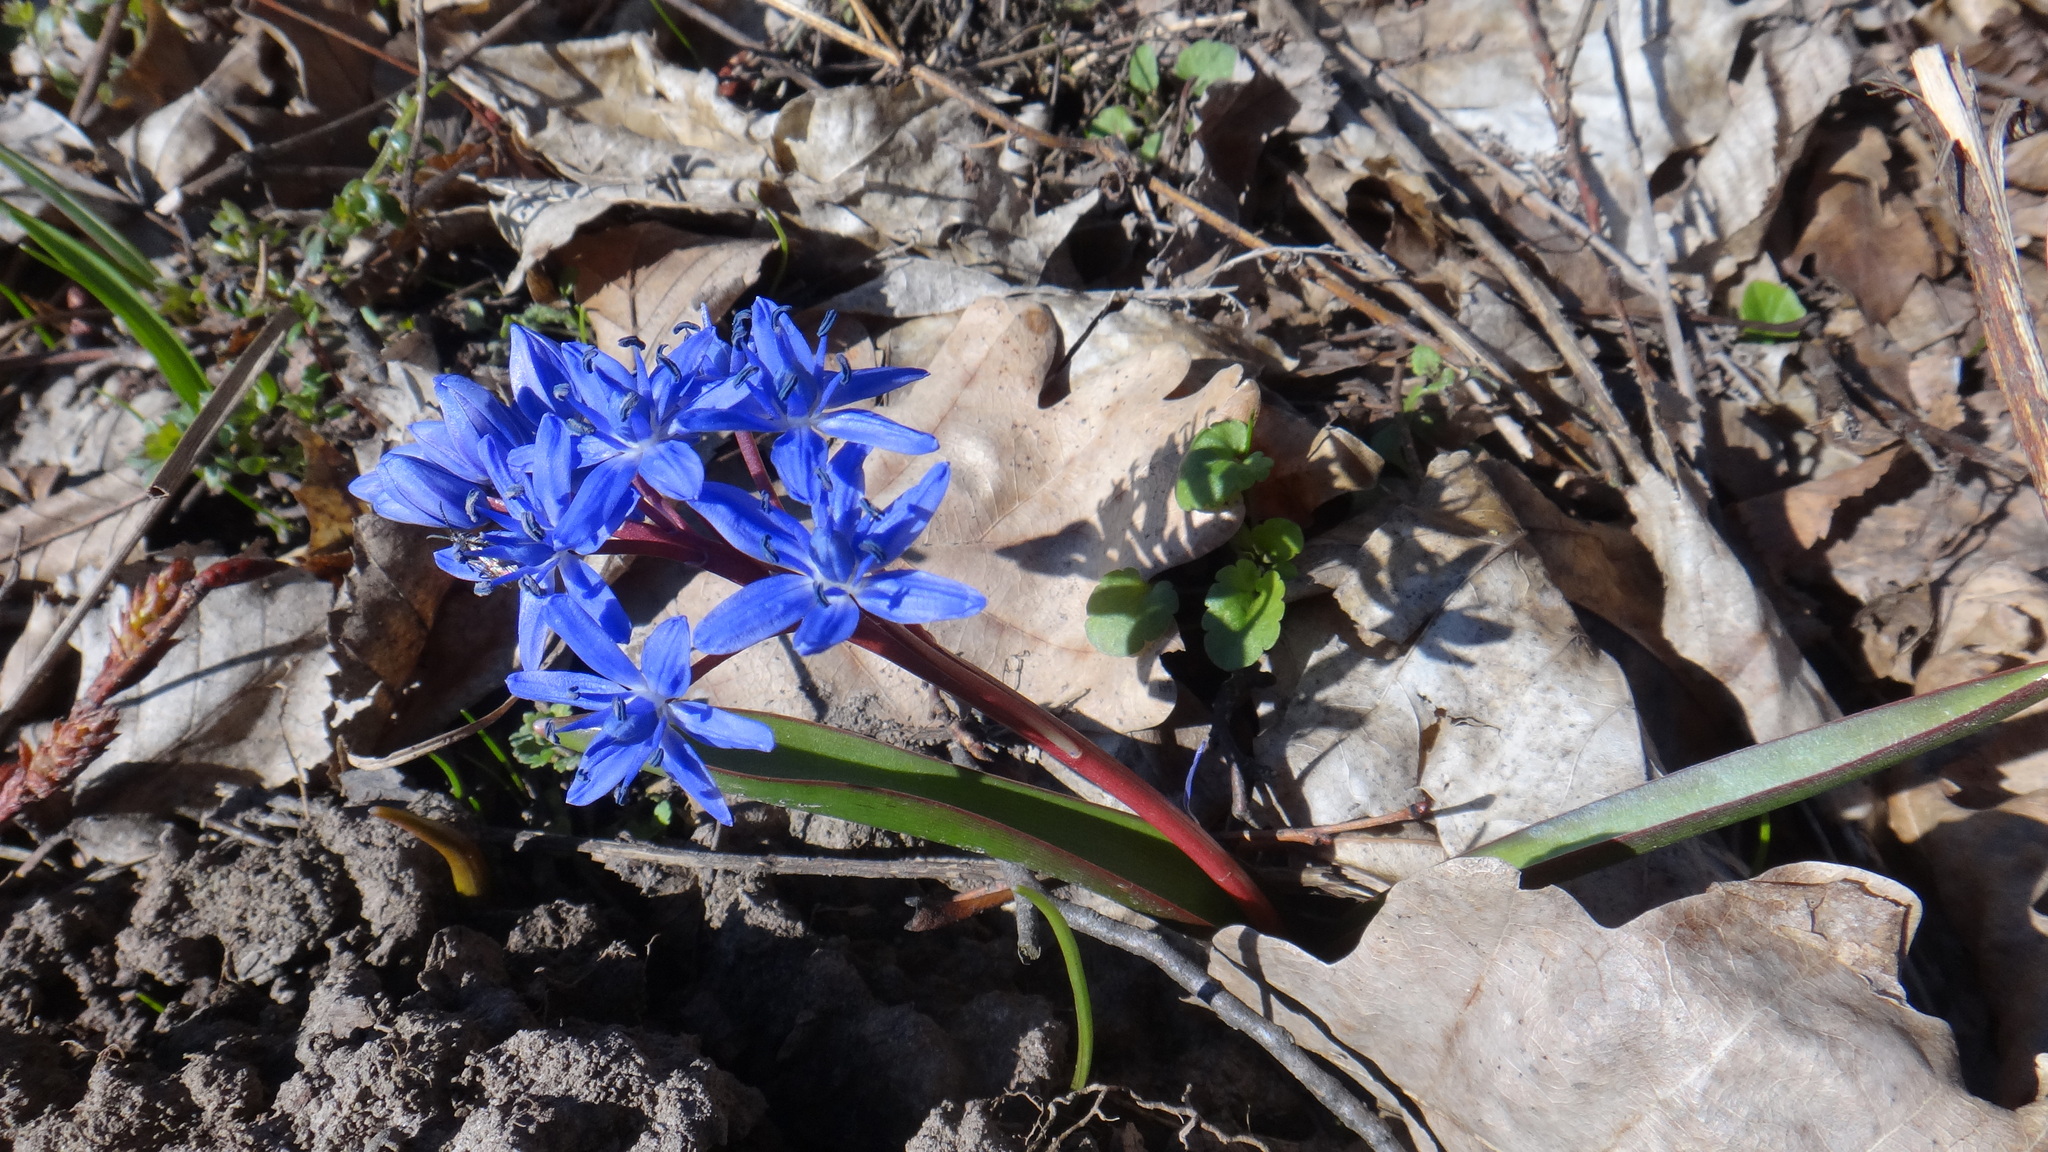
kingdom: Plantae
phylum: Tracheophyta
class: Liliopsida
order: Asparagales
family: Asparagaceae
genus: Scilla
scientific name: Scilla bifolia
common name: Alpine squill
